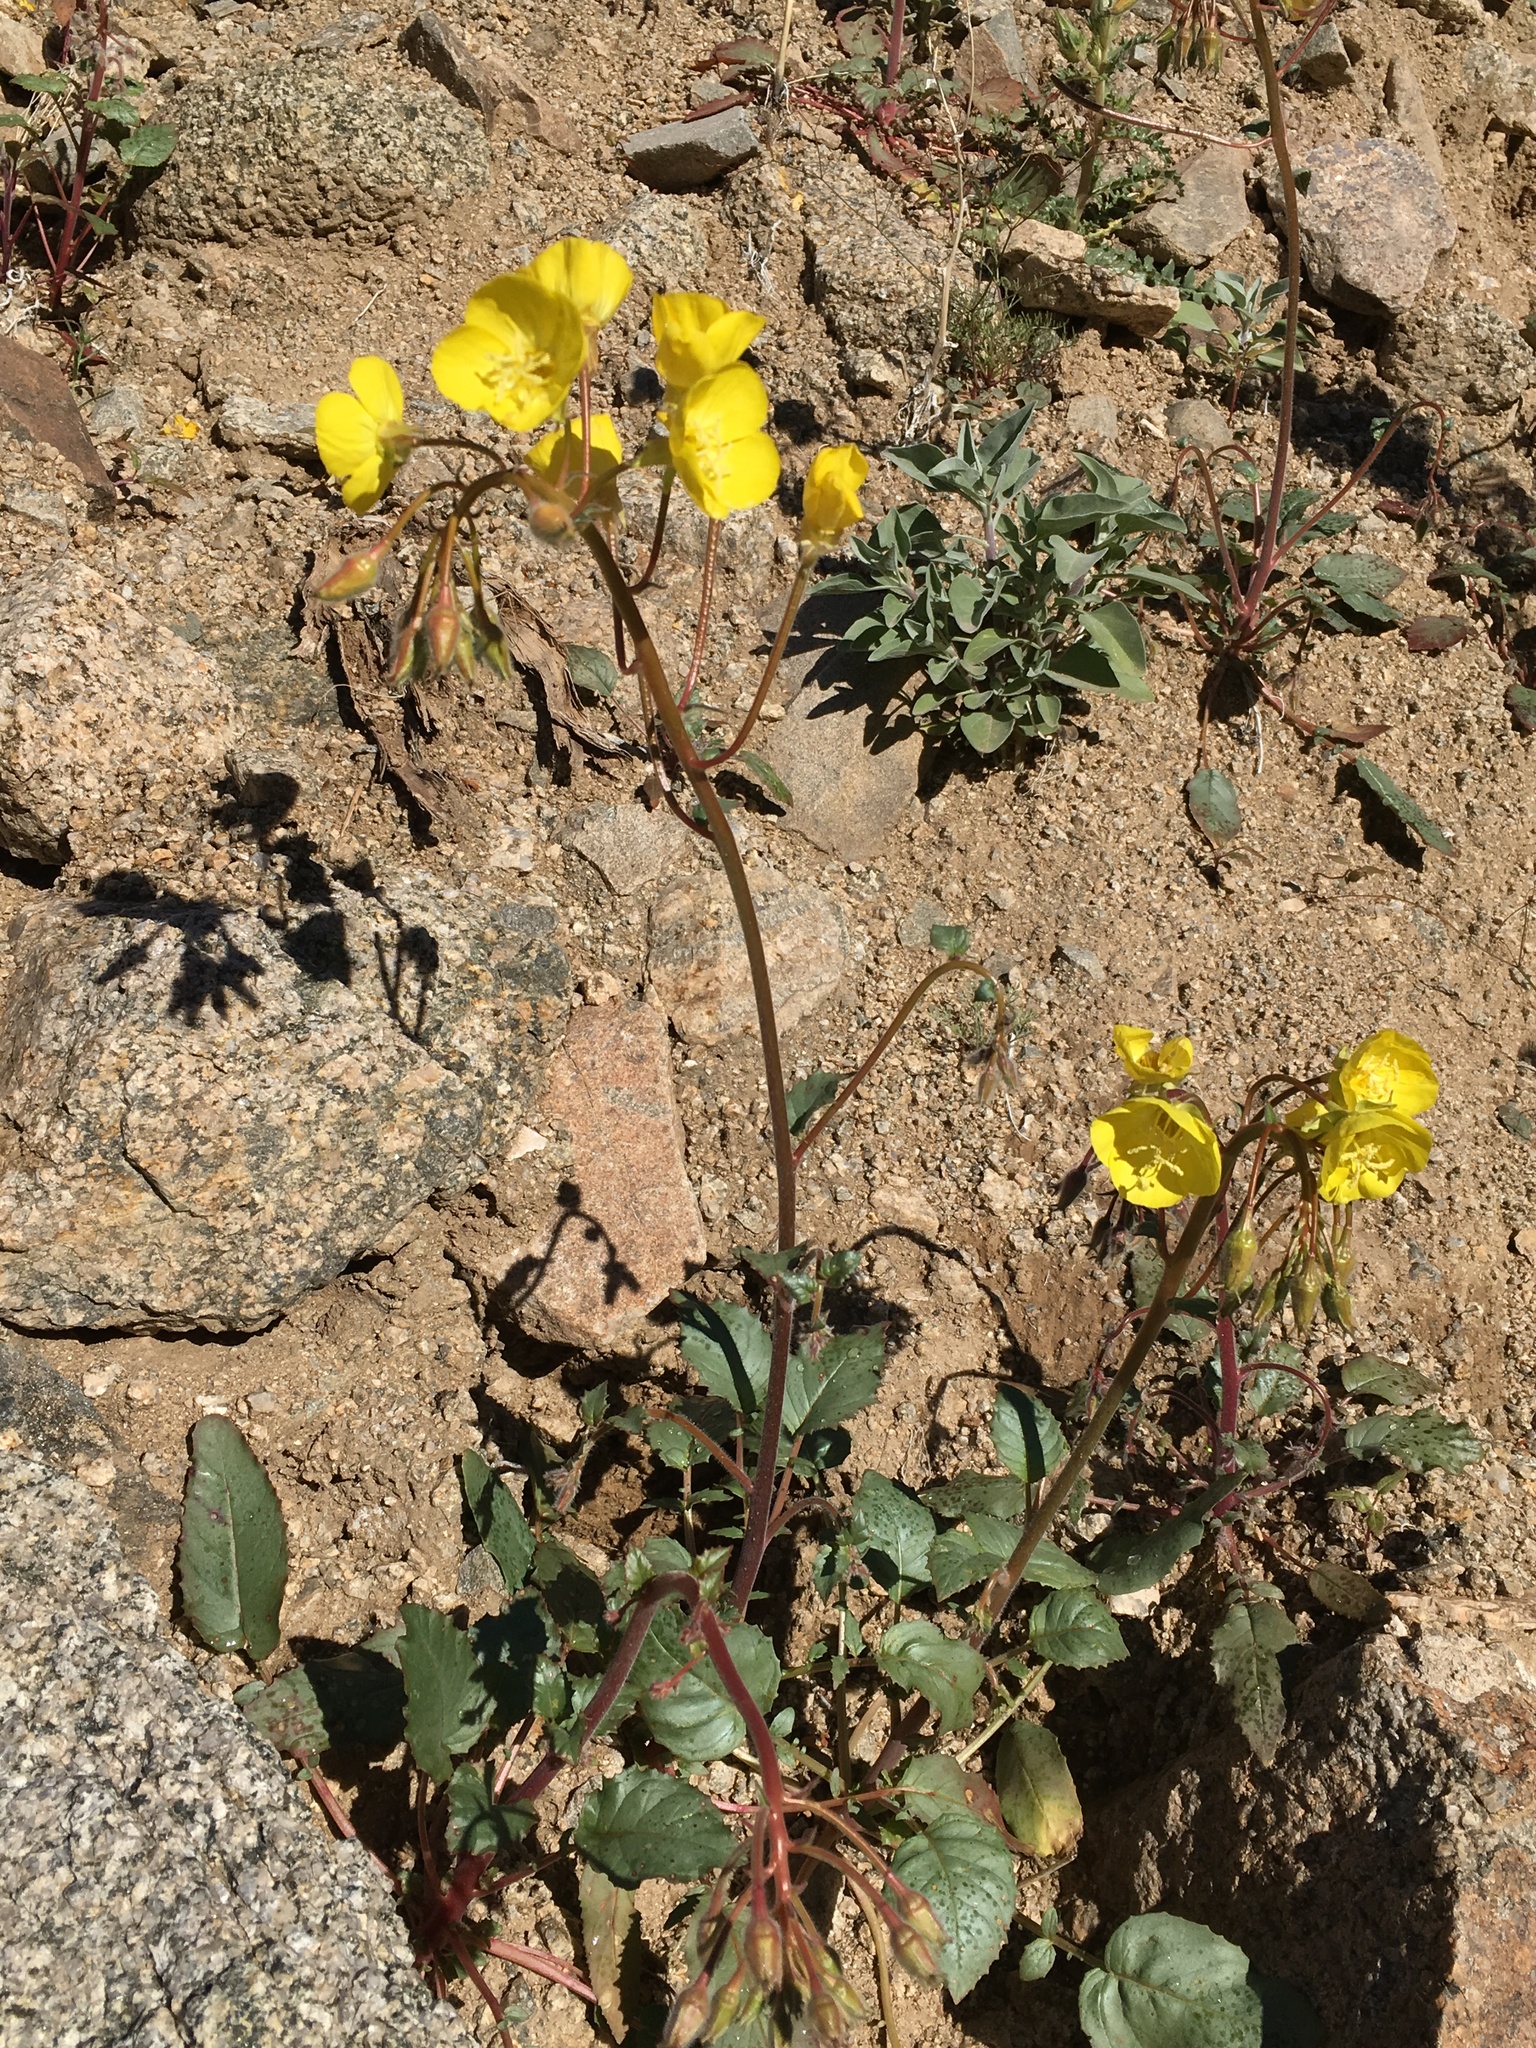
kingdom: Plantae
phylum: Tracheophyta
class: Magnoliopsida
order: Myrtales
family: Onagraceae
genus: Chylismia
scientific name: Chylismia brevipes
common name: Yellow cups
